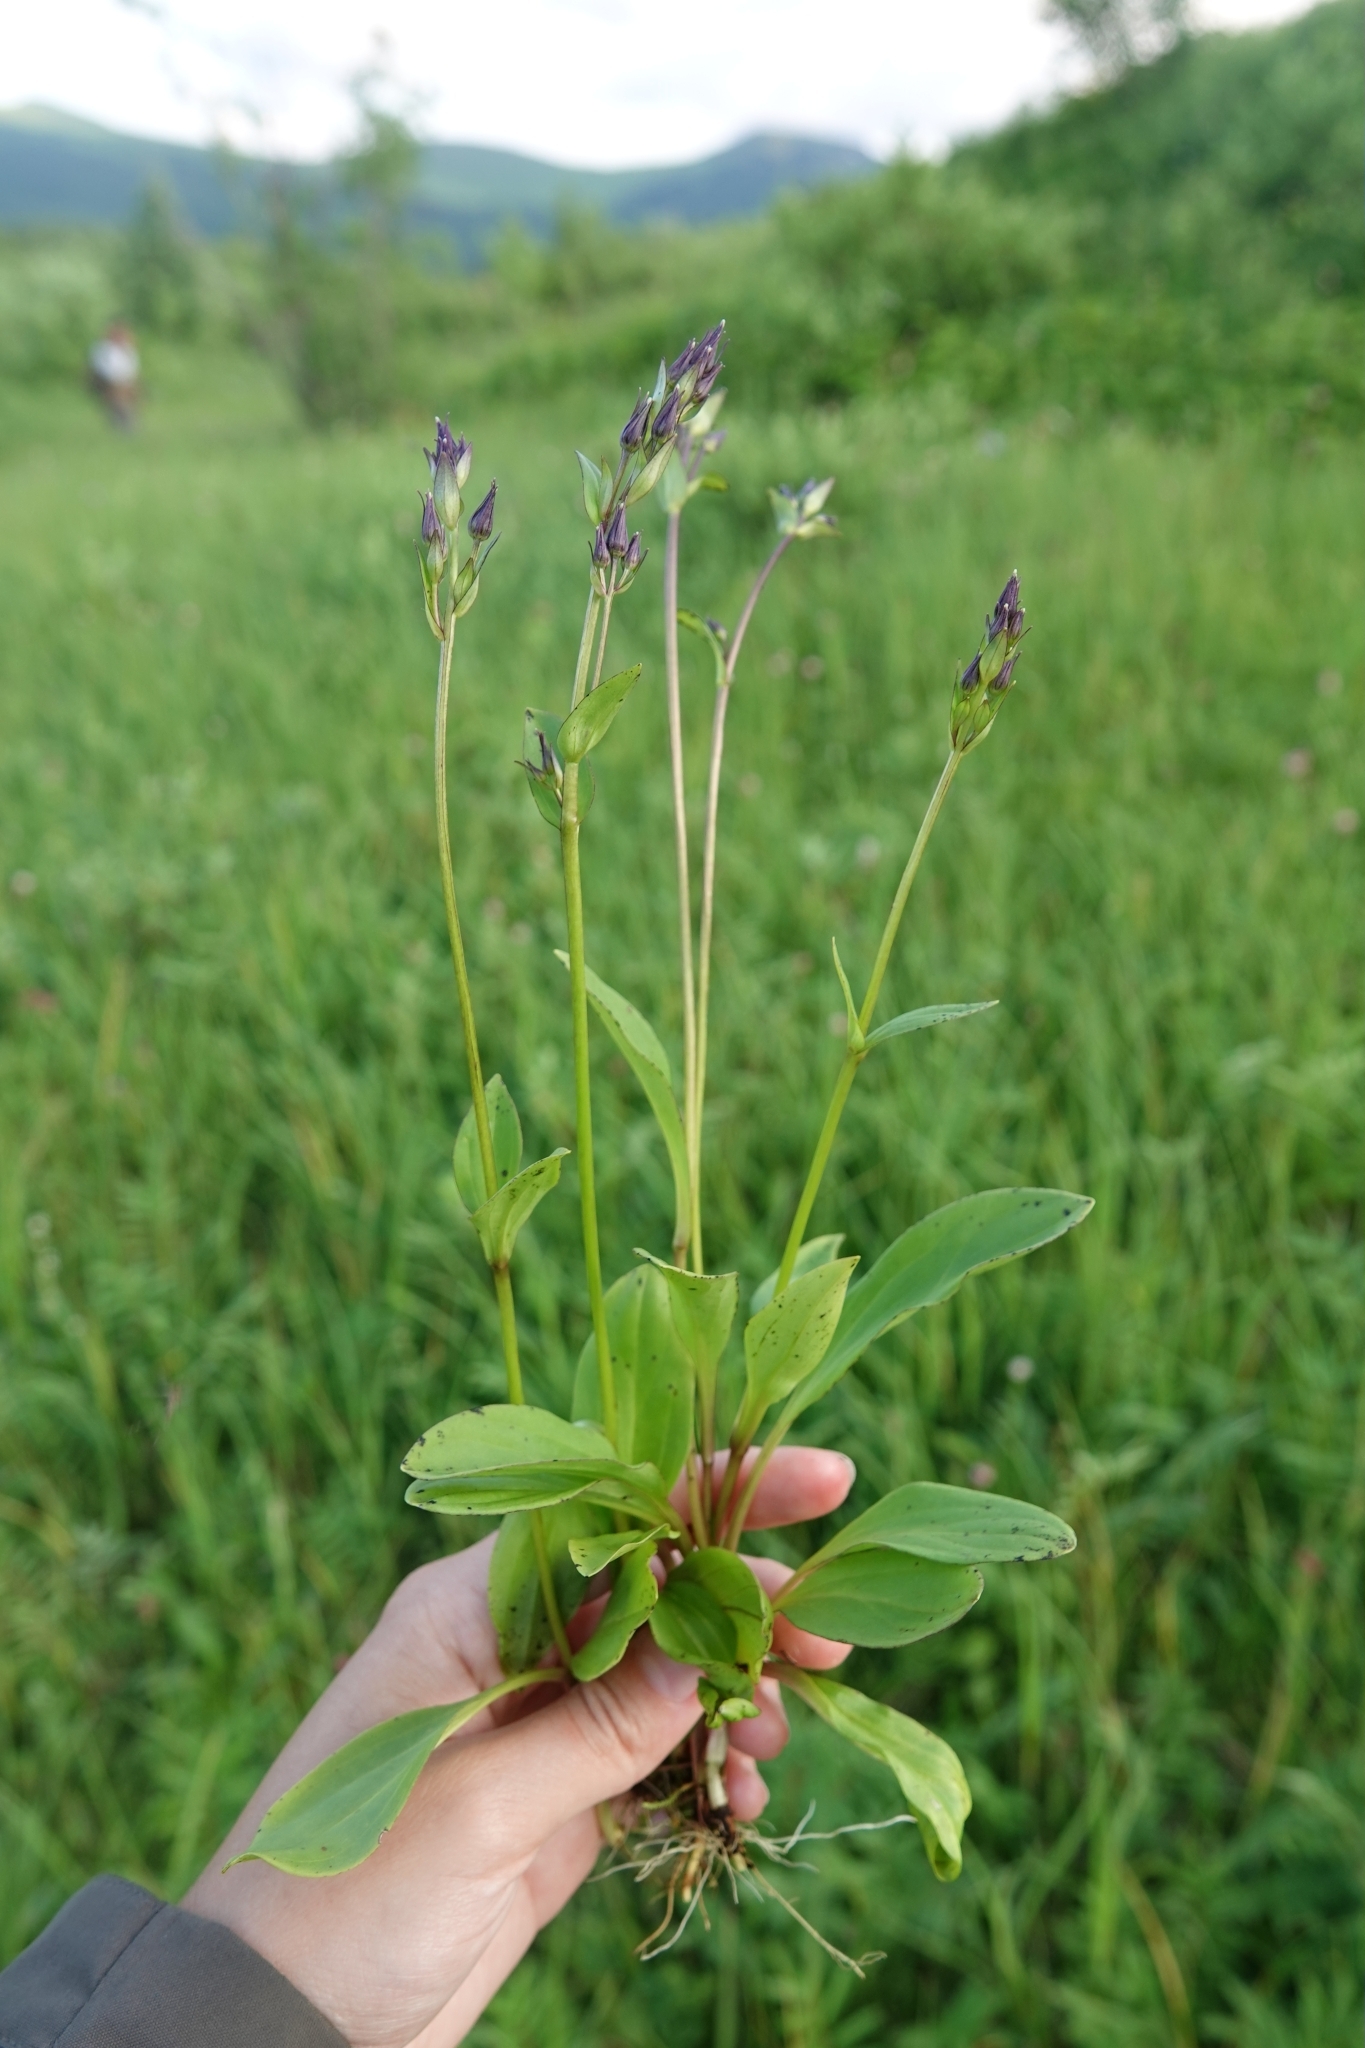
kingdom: Plantae
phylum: Tracheophyta
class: Magnoliopsida
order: Gentianales
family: Gentianaceae
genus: Swertia
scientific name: Swertia obtusa
